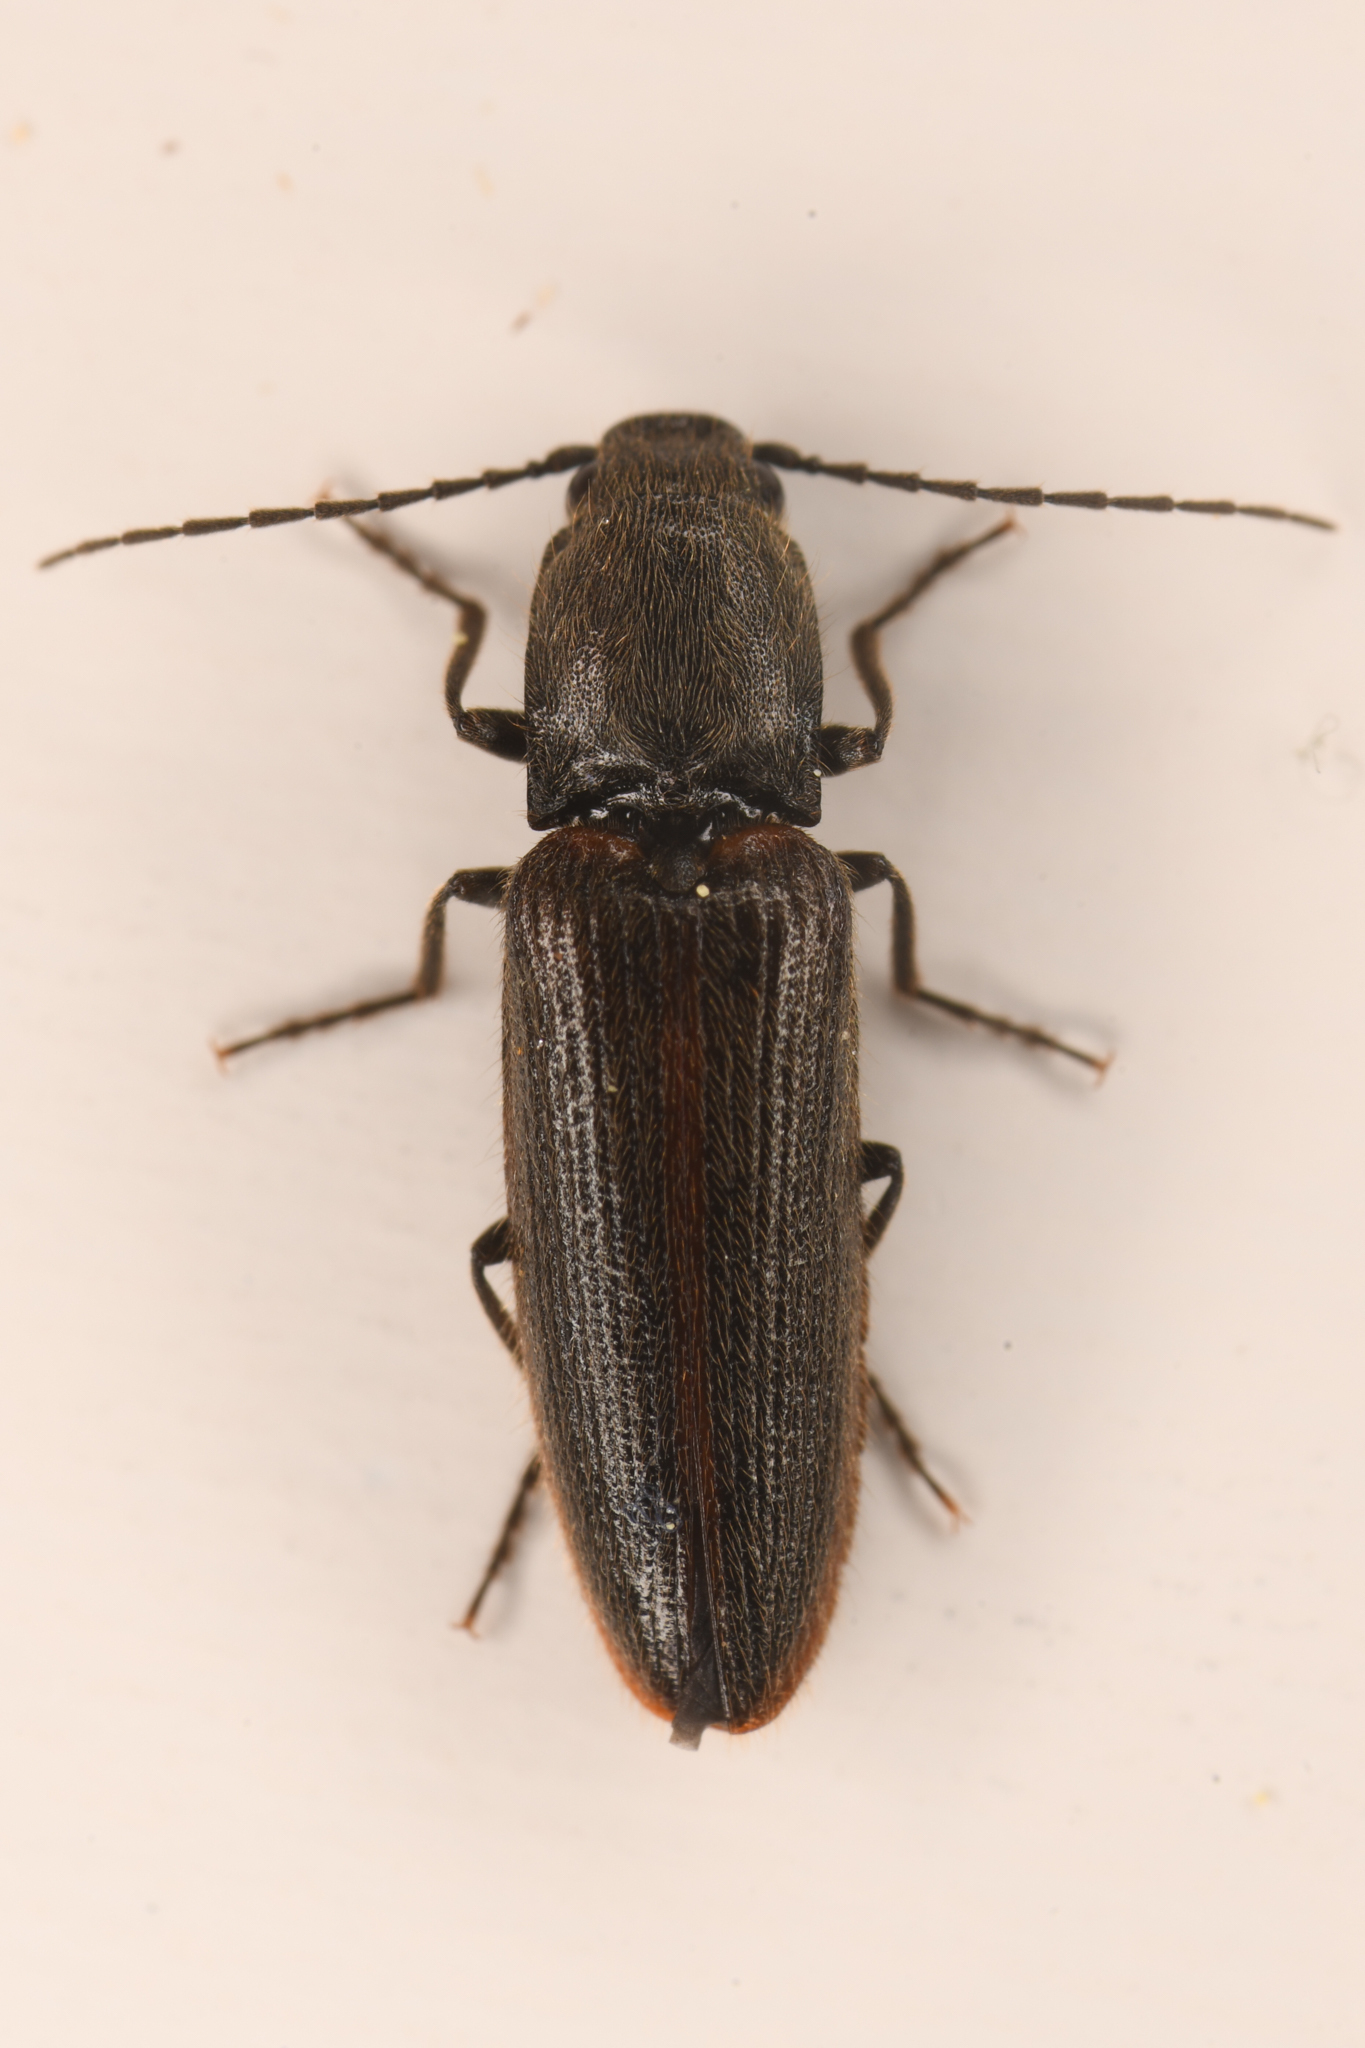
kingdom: Animalia
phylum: Arthropoda
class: Insecta
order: Coleoptera
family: Elateridae
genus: Athous
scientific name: Athous sierrae
